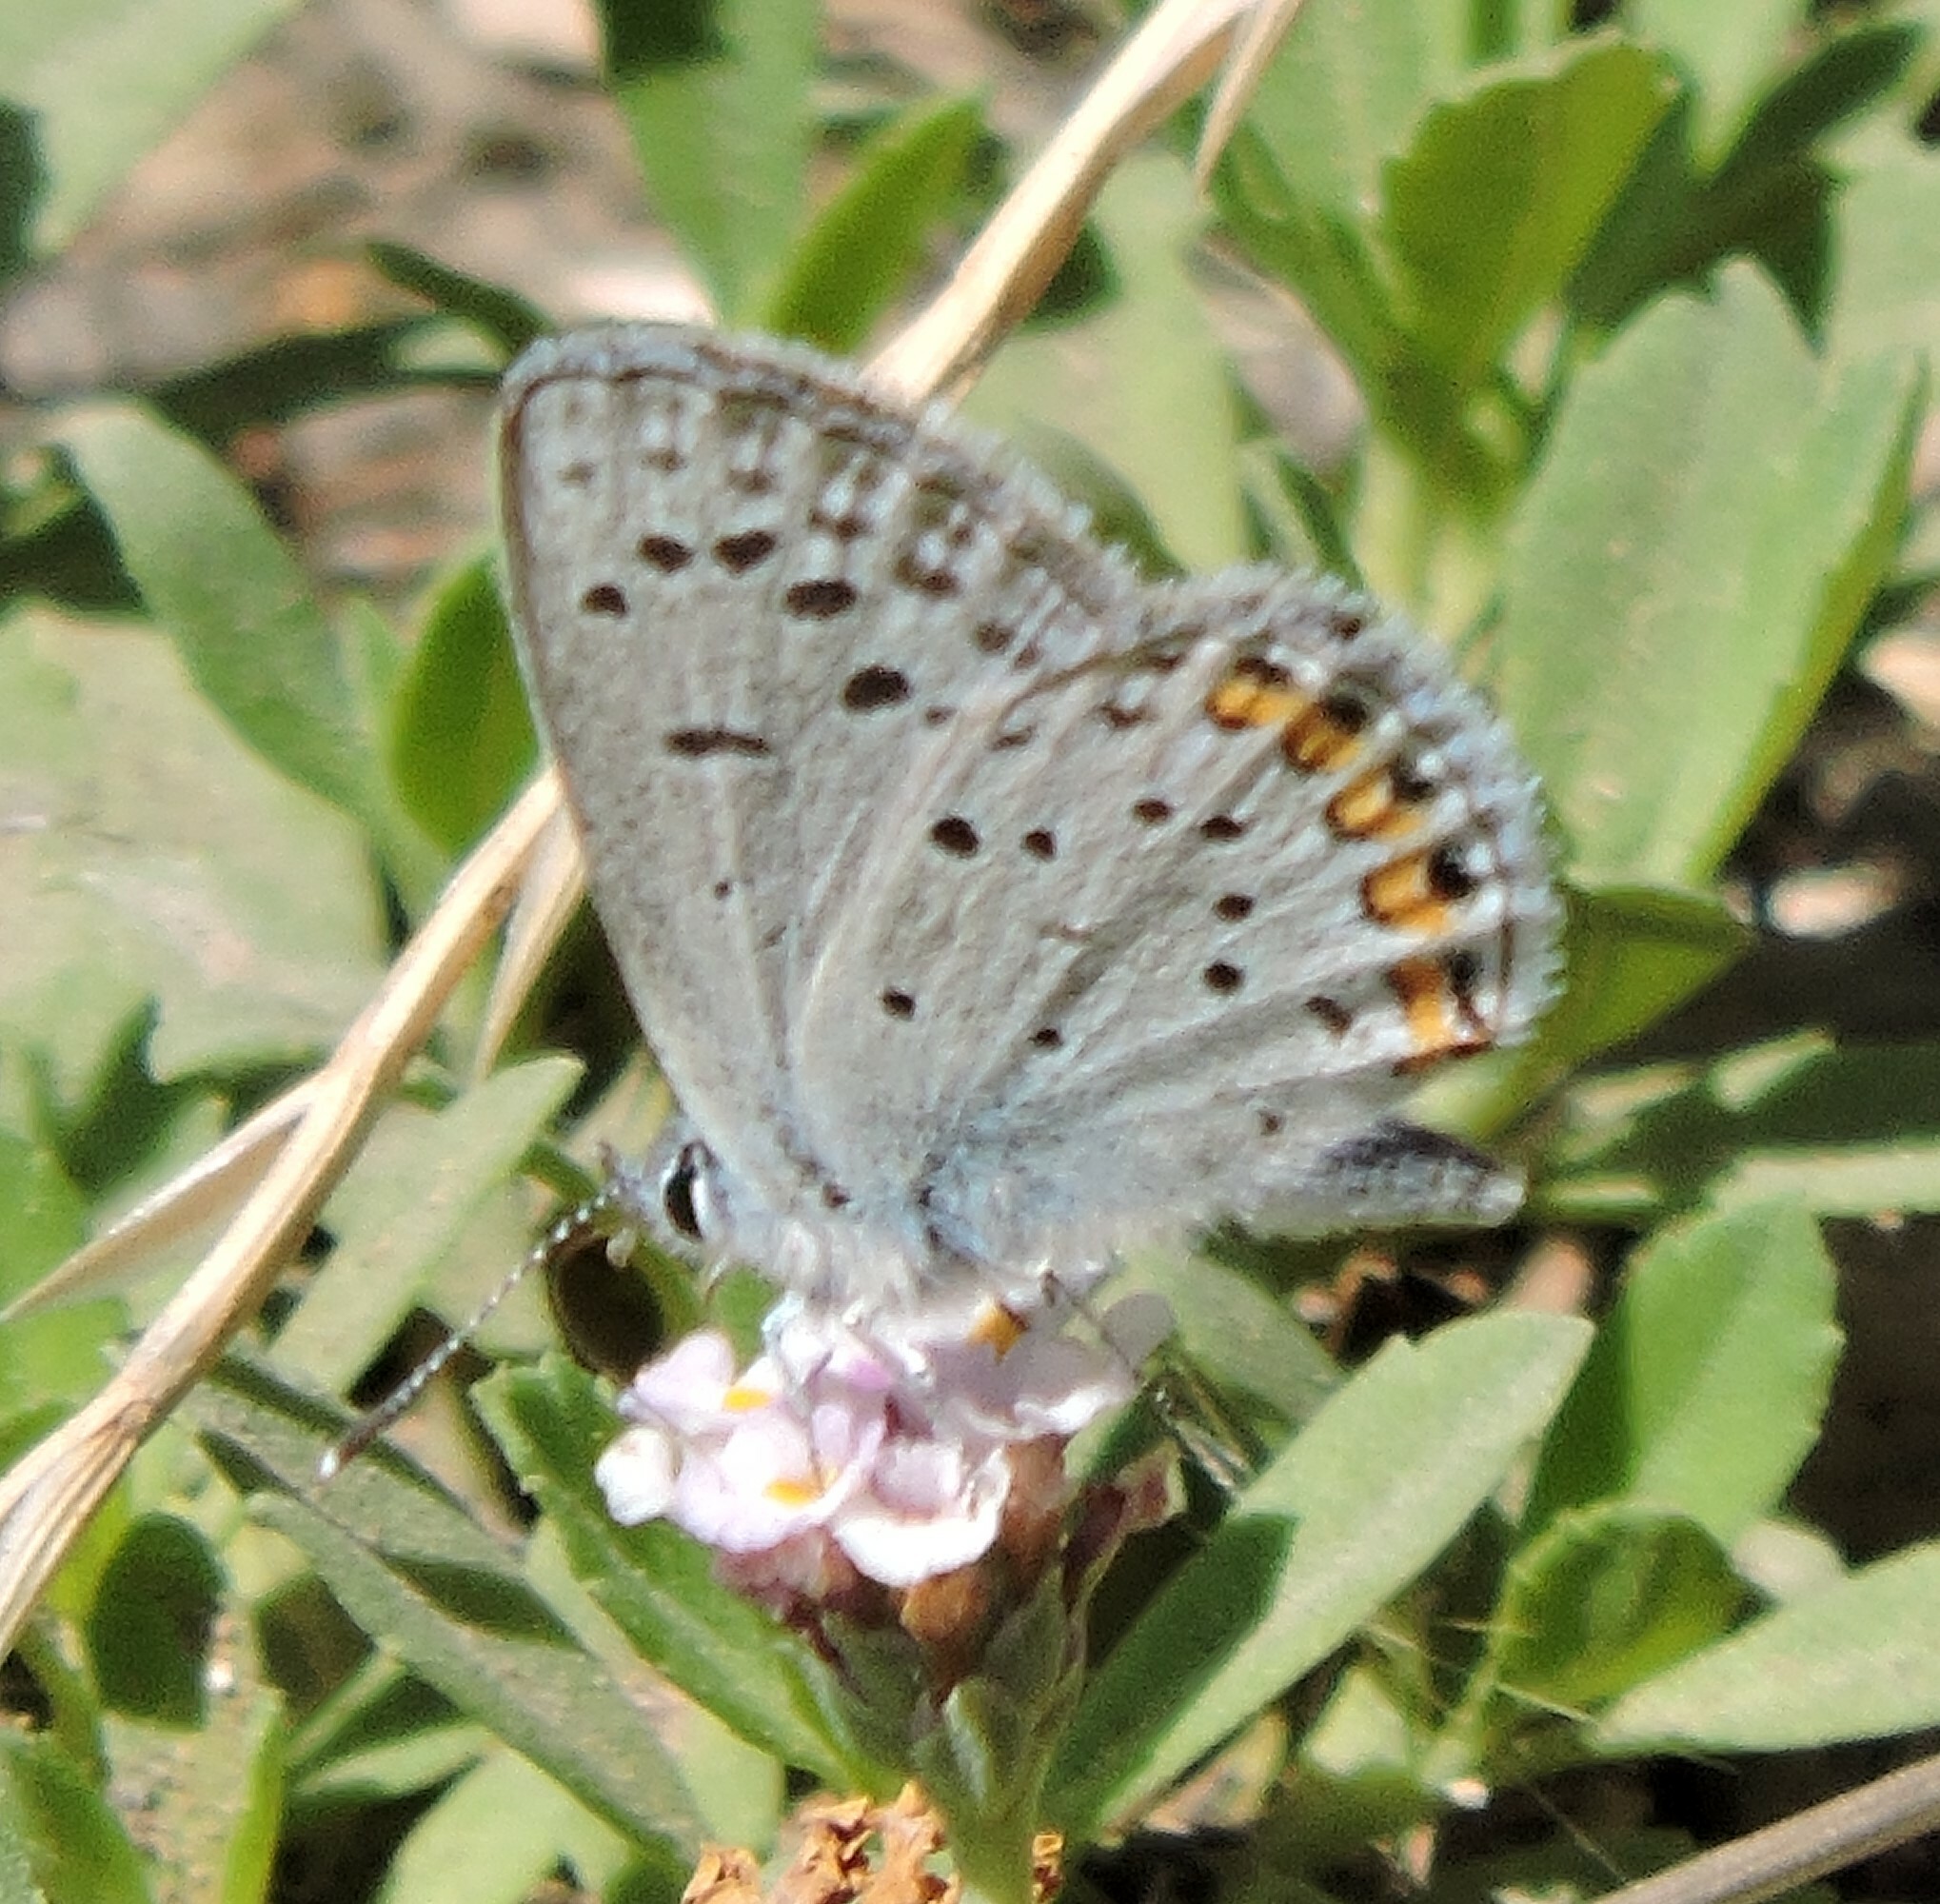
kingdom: Animalia
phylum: Arthropoda
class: Insecta
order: Lepidoptera
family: Lycaenidae
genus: Icaricia
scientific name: Icaricia acmon
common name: Acmon blue
